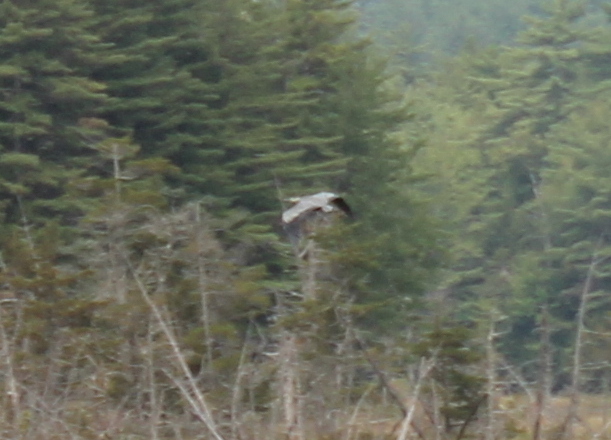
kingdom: Animalia
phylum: Chordata
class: Aves
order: Pelecaniformes
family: Ardeidae
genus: Ardea
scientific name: Ardea herodias
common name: Great blue heron
